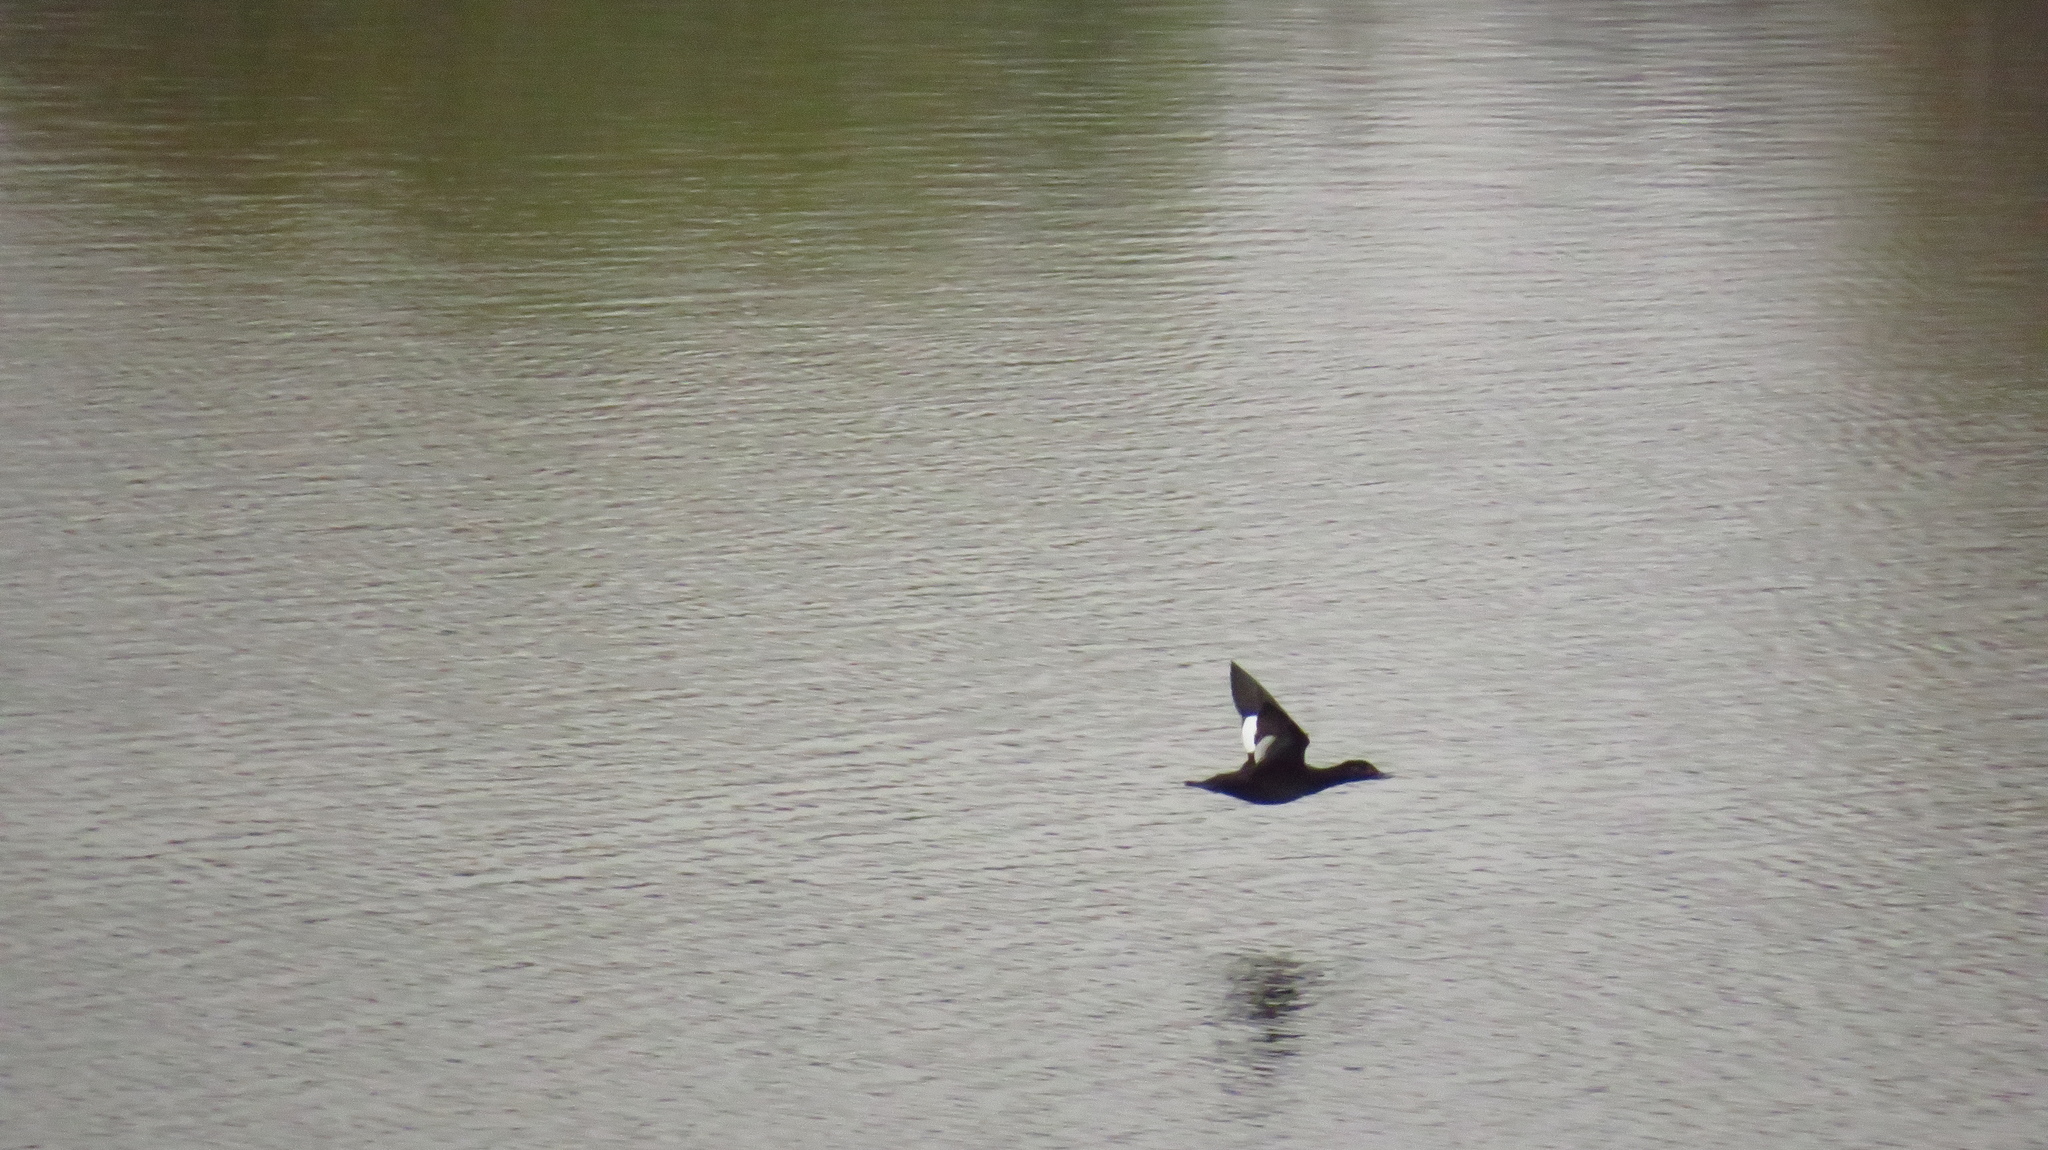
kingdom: Animalia
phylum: Chordata
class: Aves
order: Anseriformes
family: Anatidae
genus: Melanitta
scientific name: Melanitta fusca
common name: Velvet scoter
